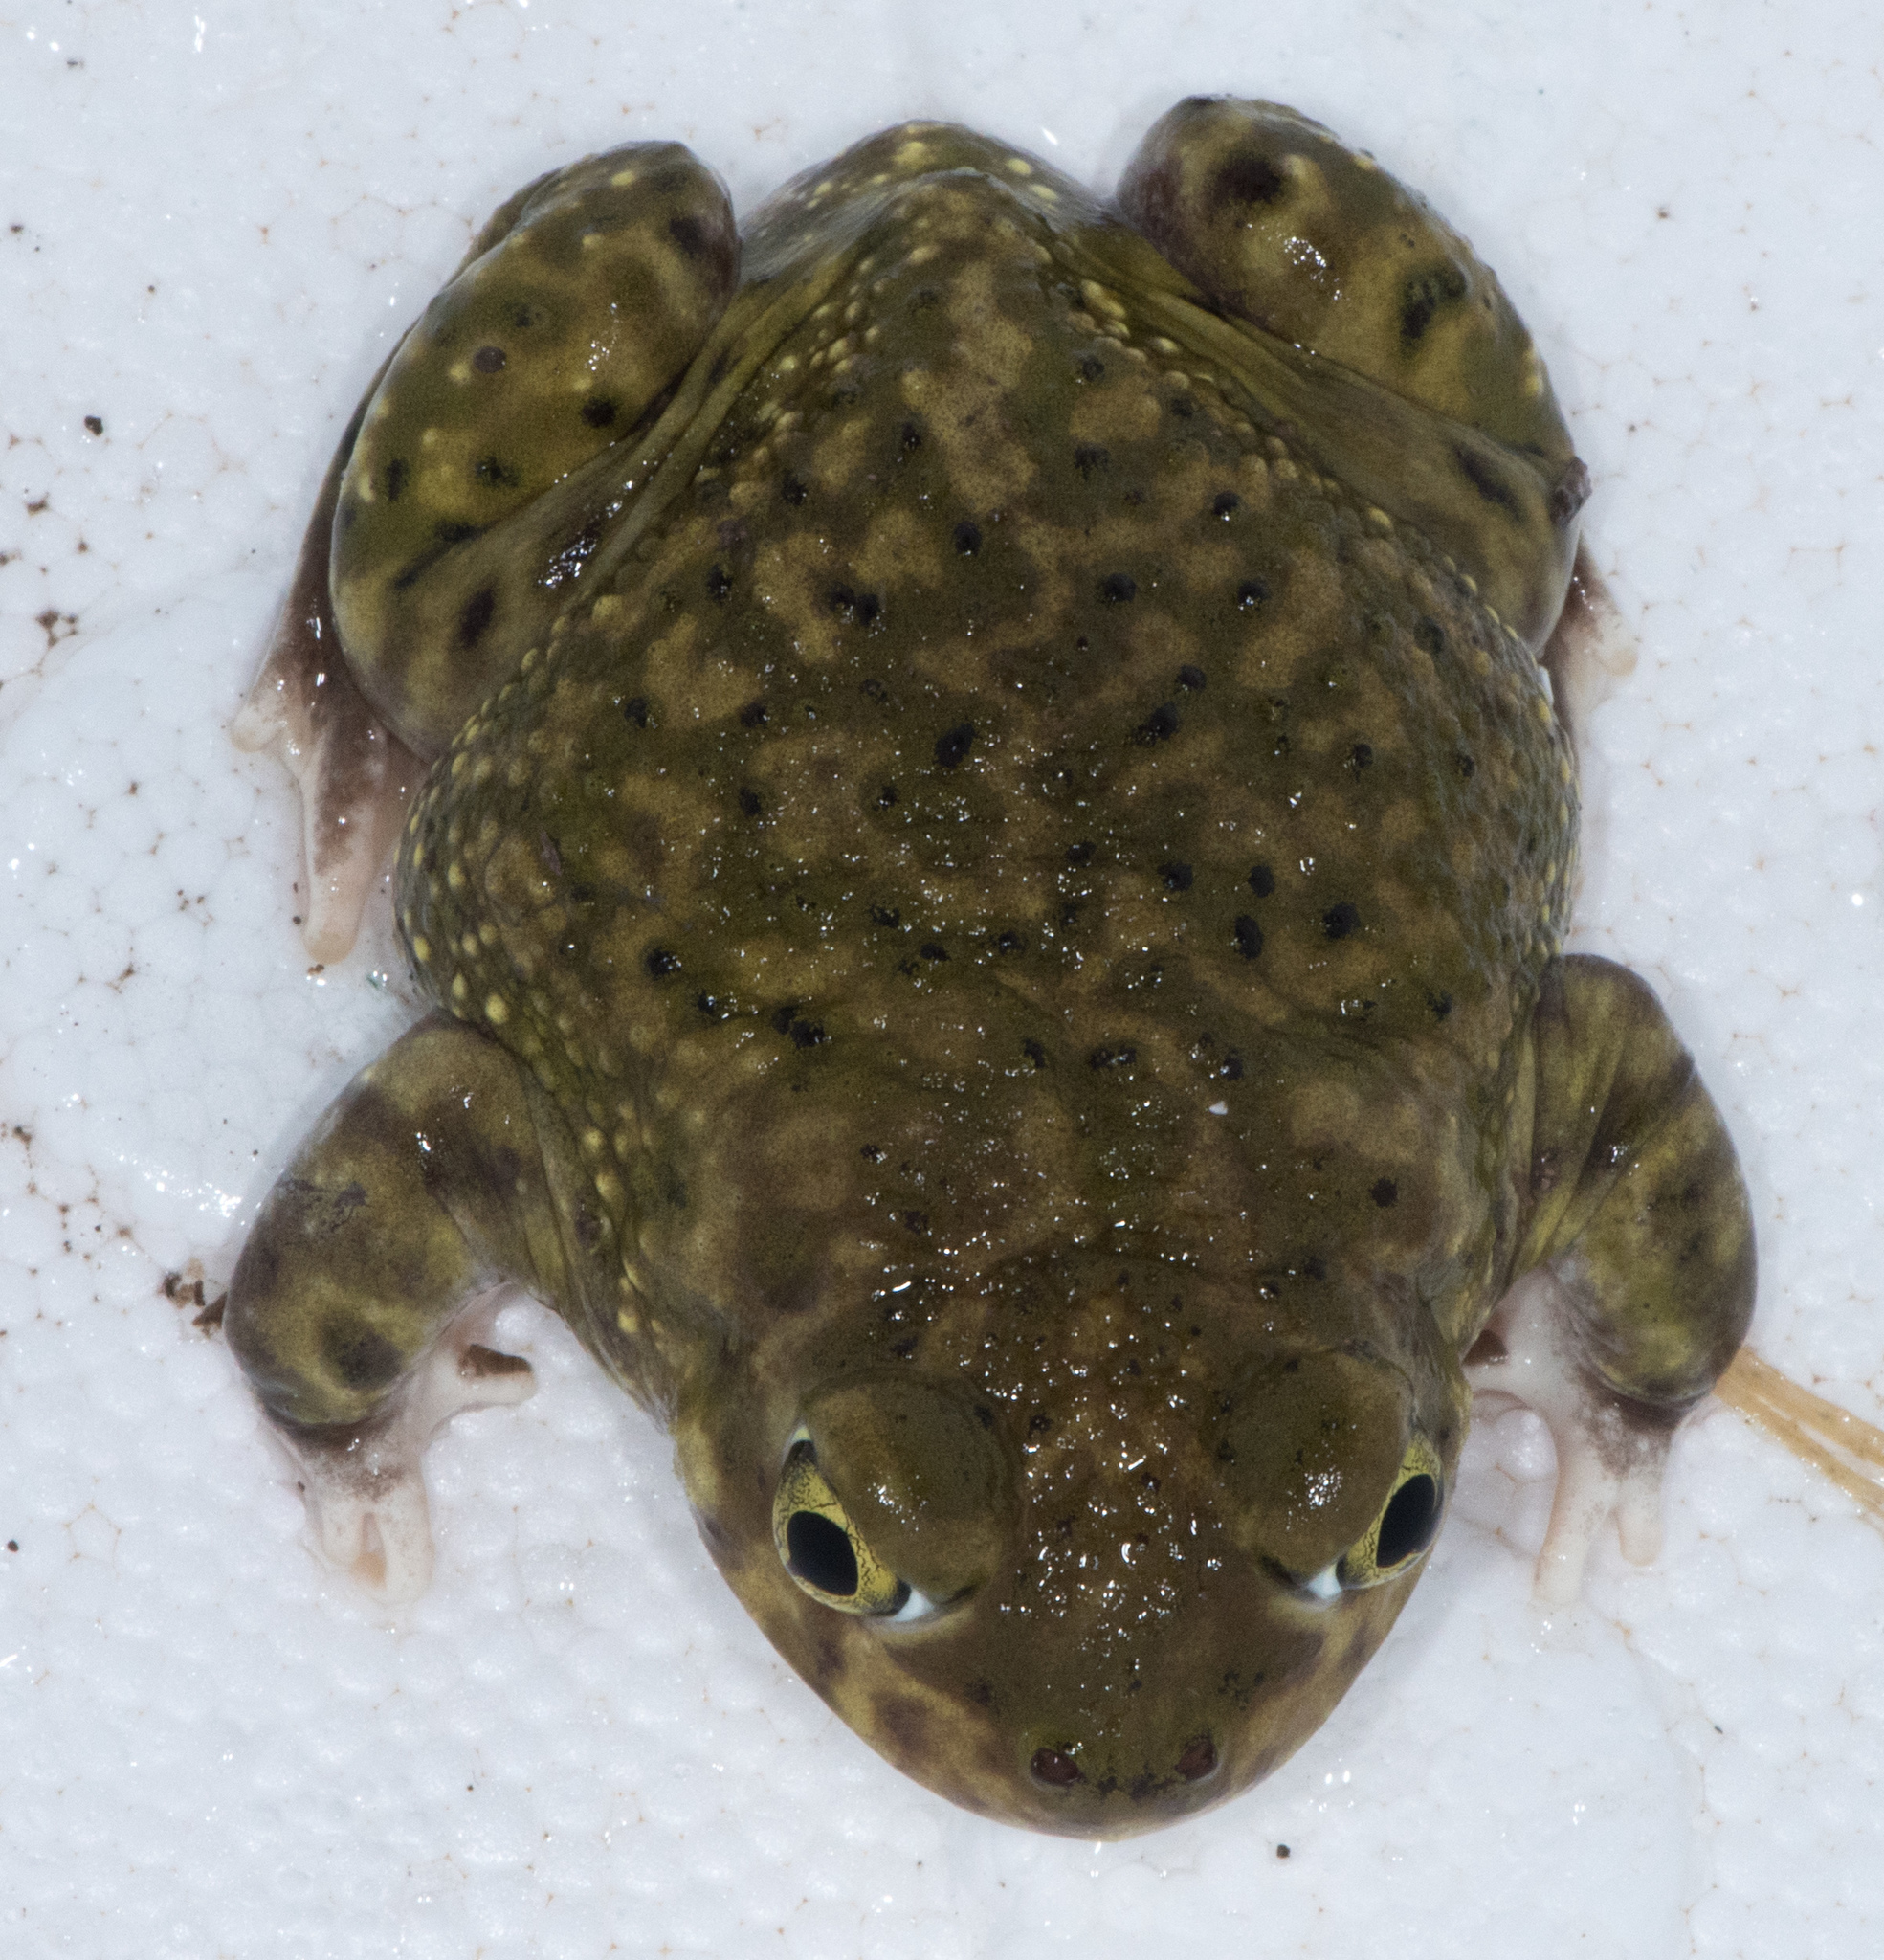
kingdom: Animalia
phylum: Chordata
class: Amphibia
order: Anura
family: Scaphiopodidae
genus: Scaphiopus
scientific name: Scaphiopus couchii
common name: Couch's spadefoot toad
